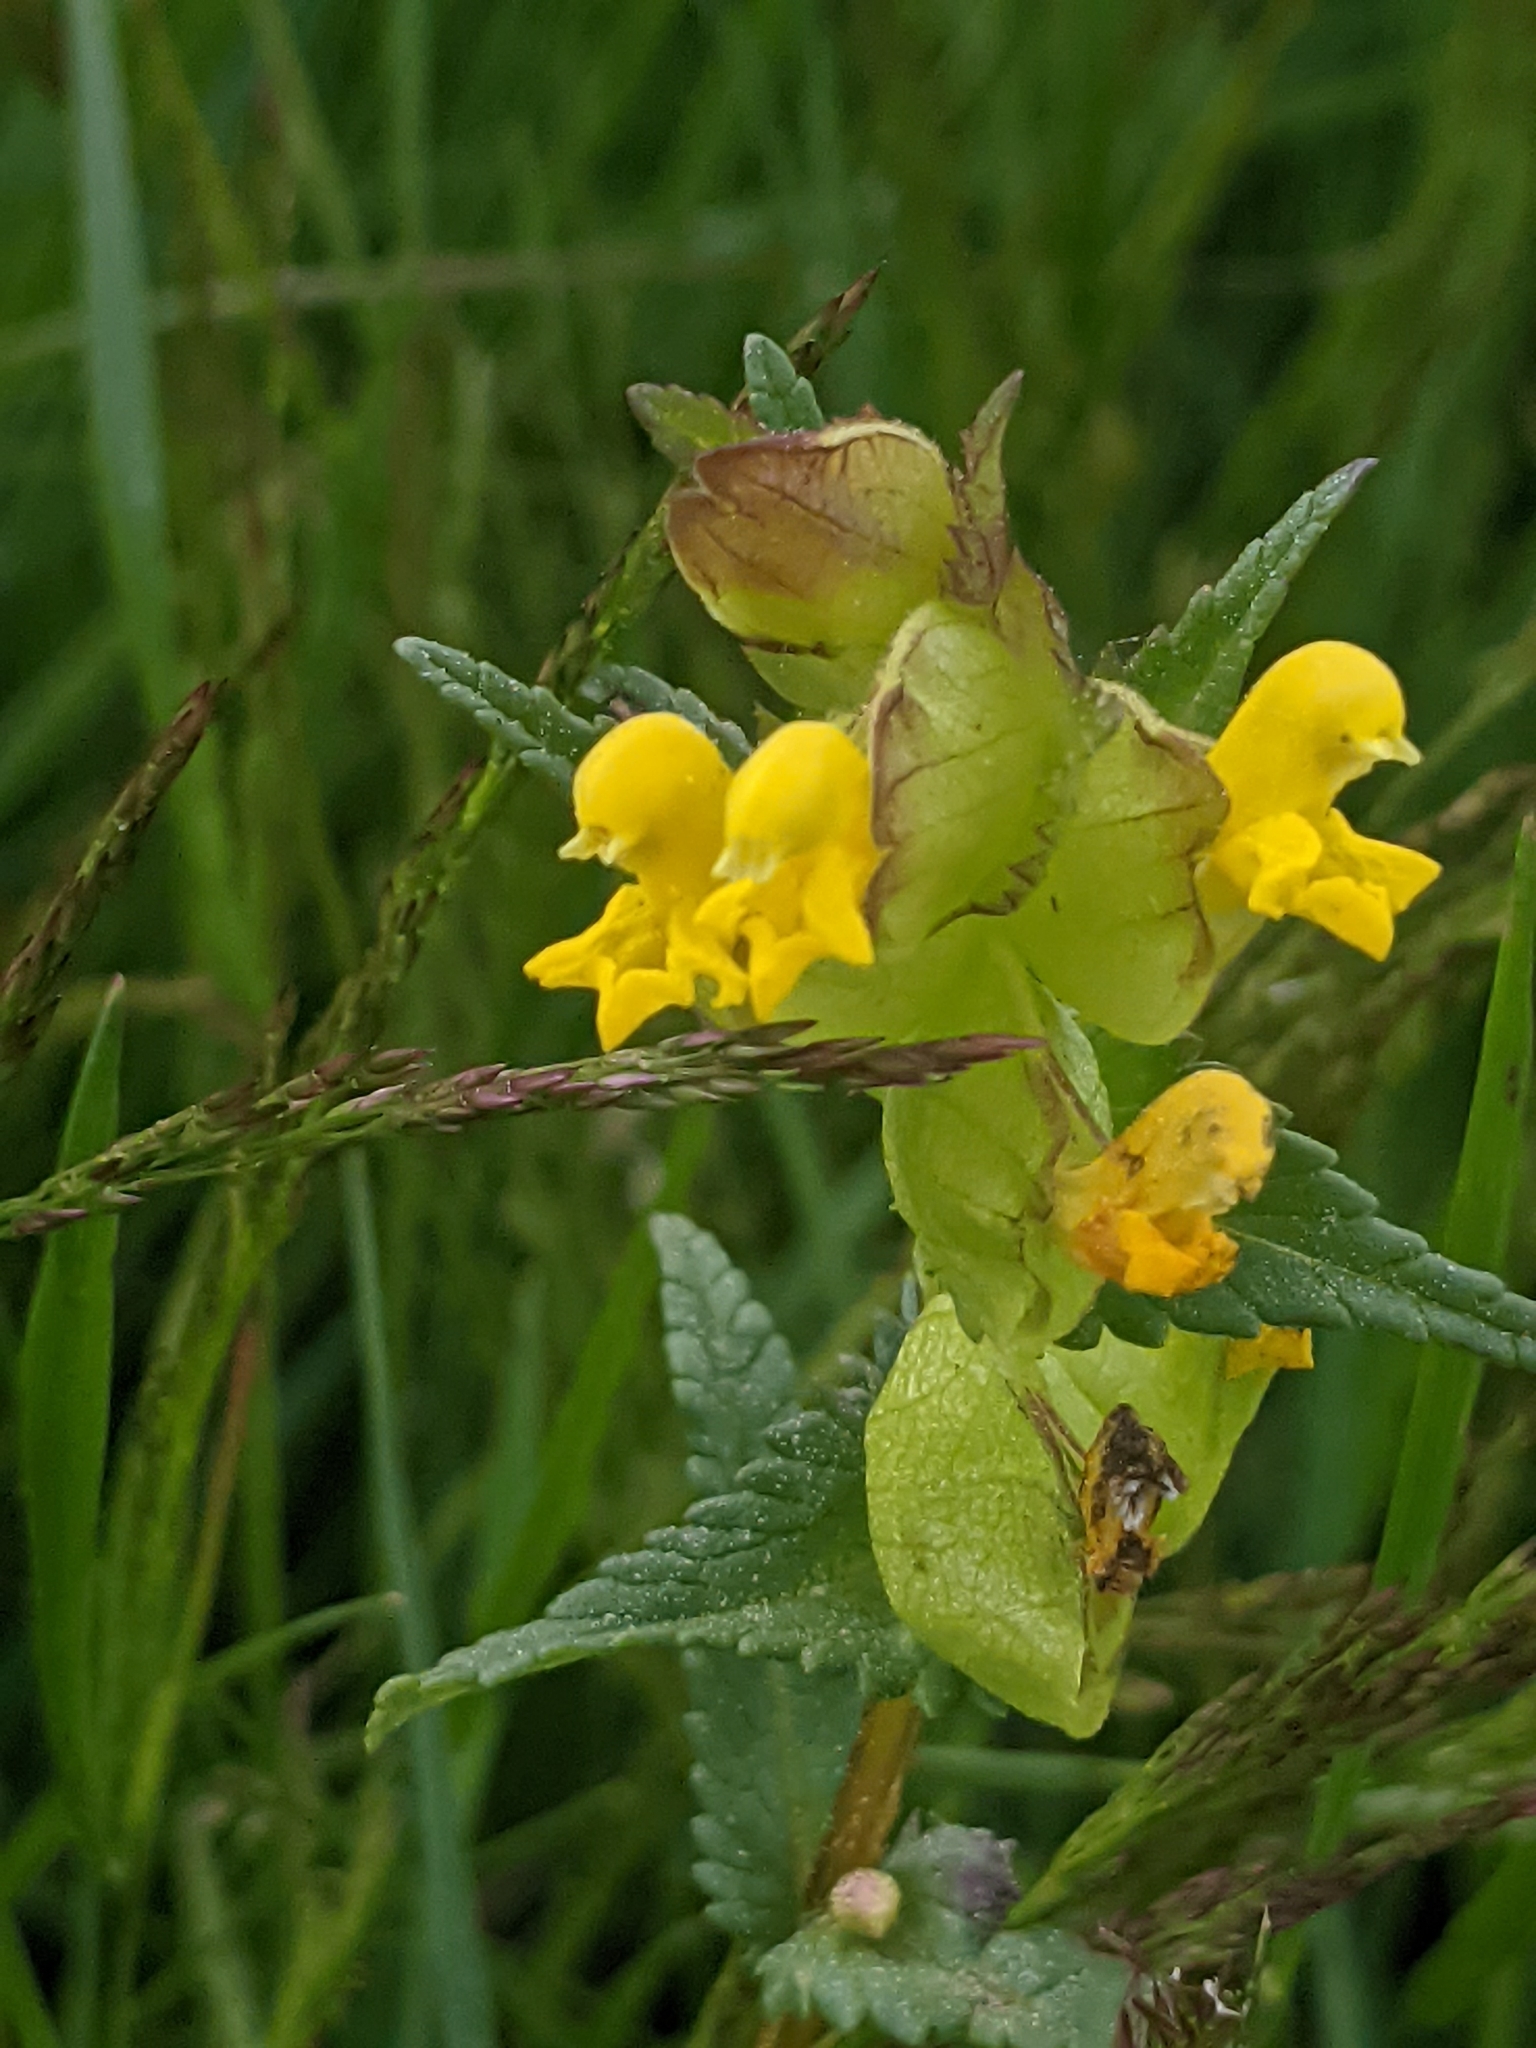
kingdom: Plantae
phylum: Tracheophyta
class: Magnoliopsida
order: Lamiales
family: Orobanchaceae
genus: Rhinanthus
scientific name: Rhinanthus minor
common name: Yellow-rattle
